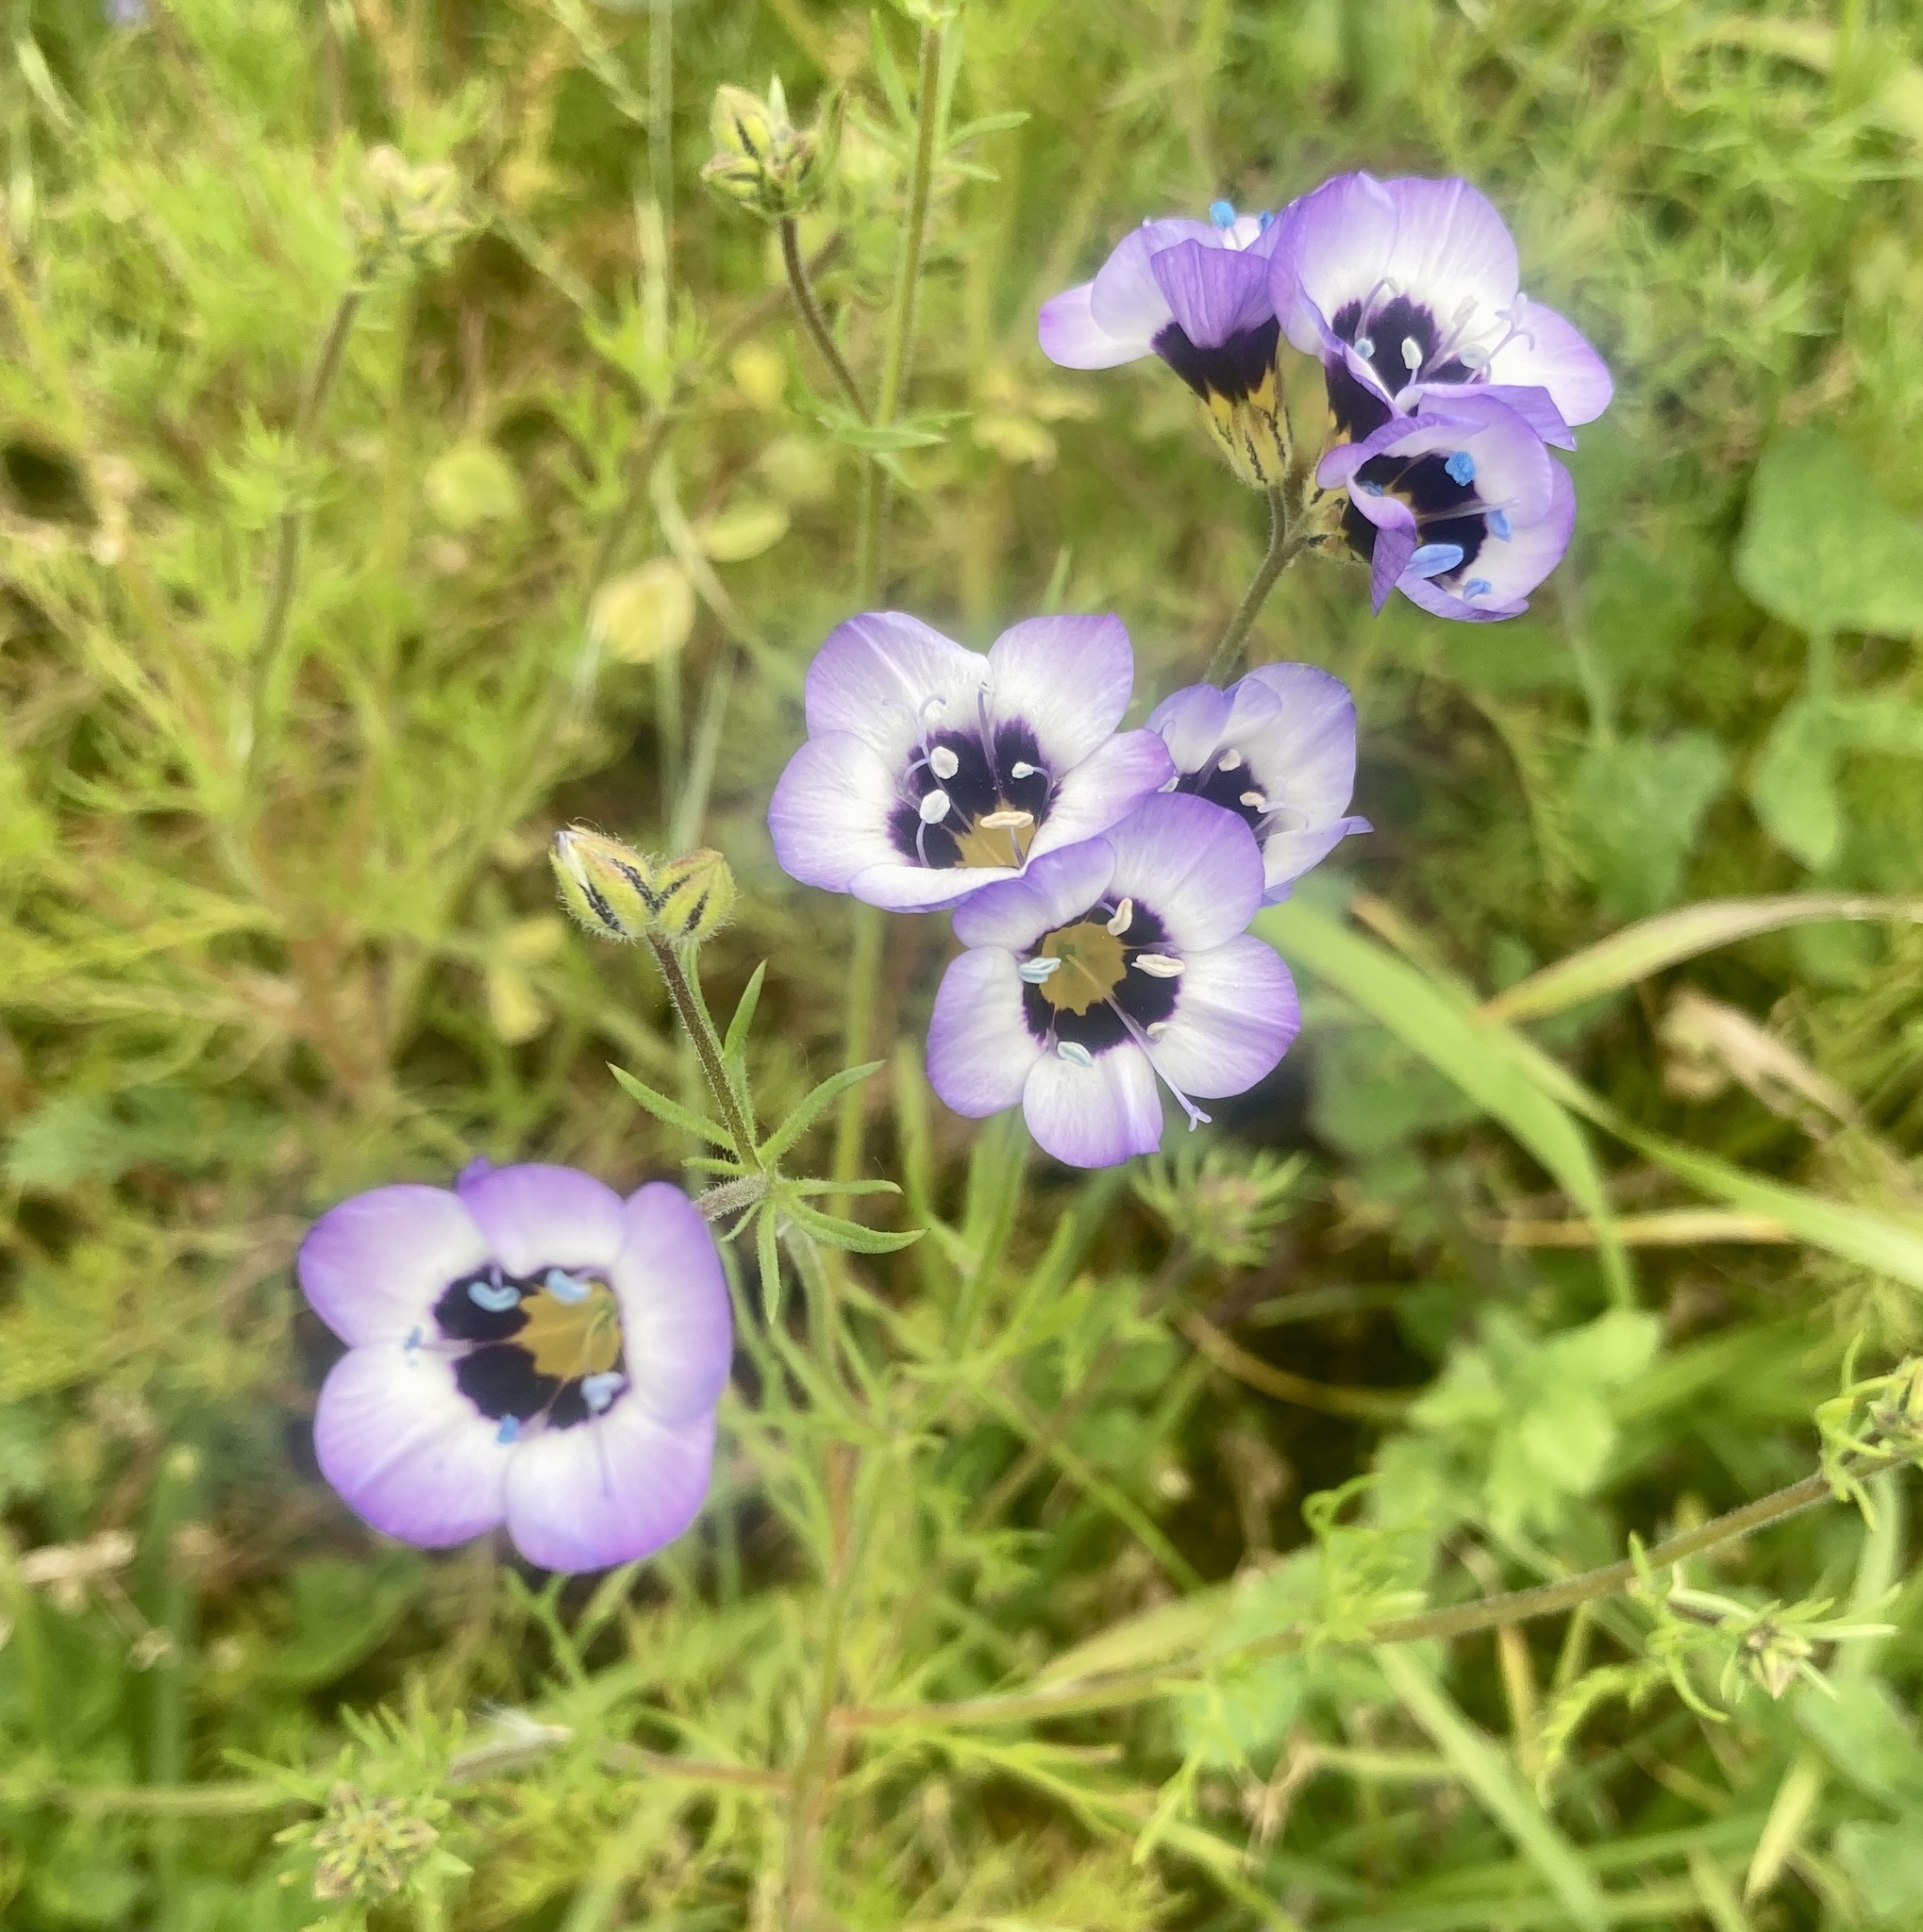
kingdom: Plantae
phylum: Tracheophyta
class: Magnoliopsida
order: Ericales
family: Polemoniaceae
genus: Gilia
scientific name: Gilia tricolor
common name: Bird's-eyes
